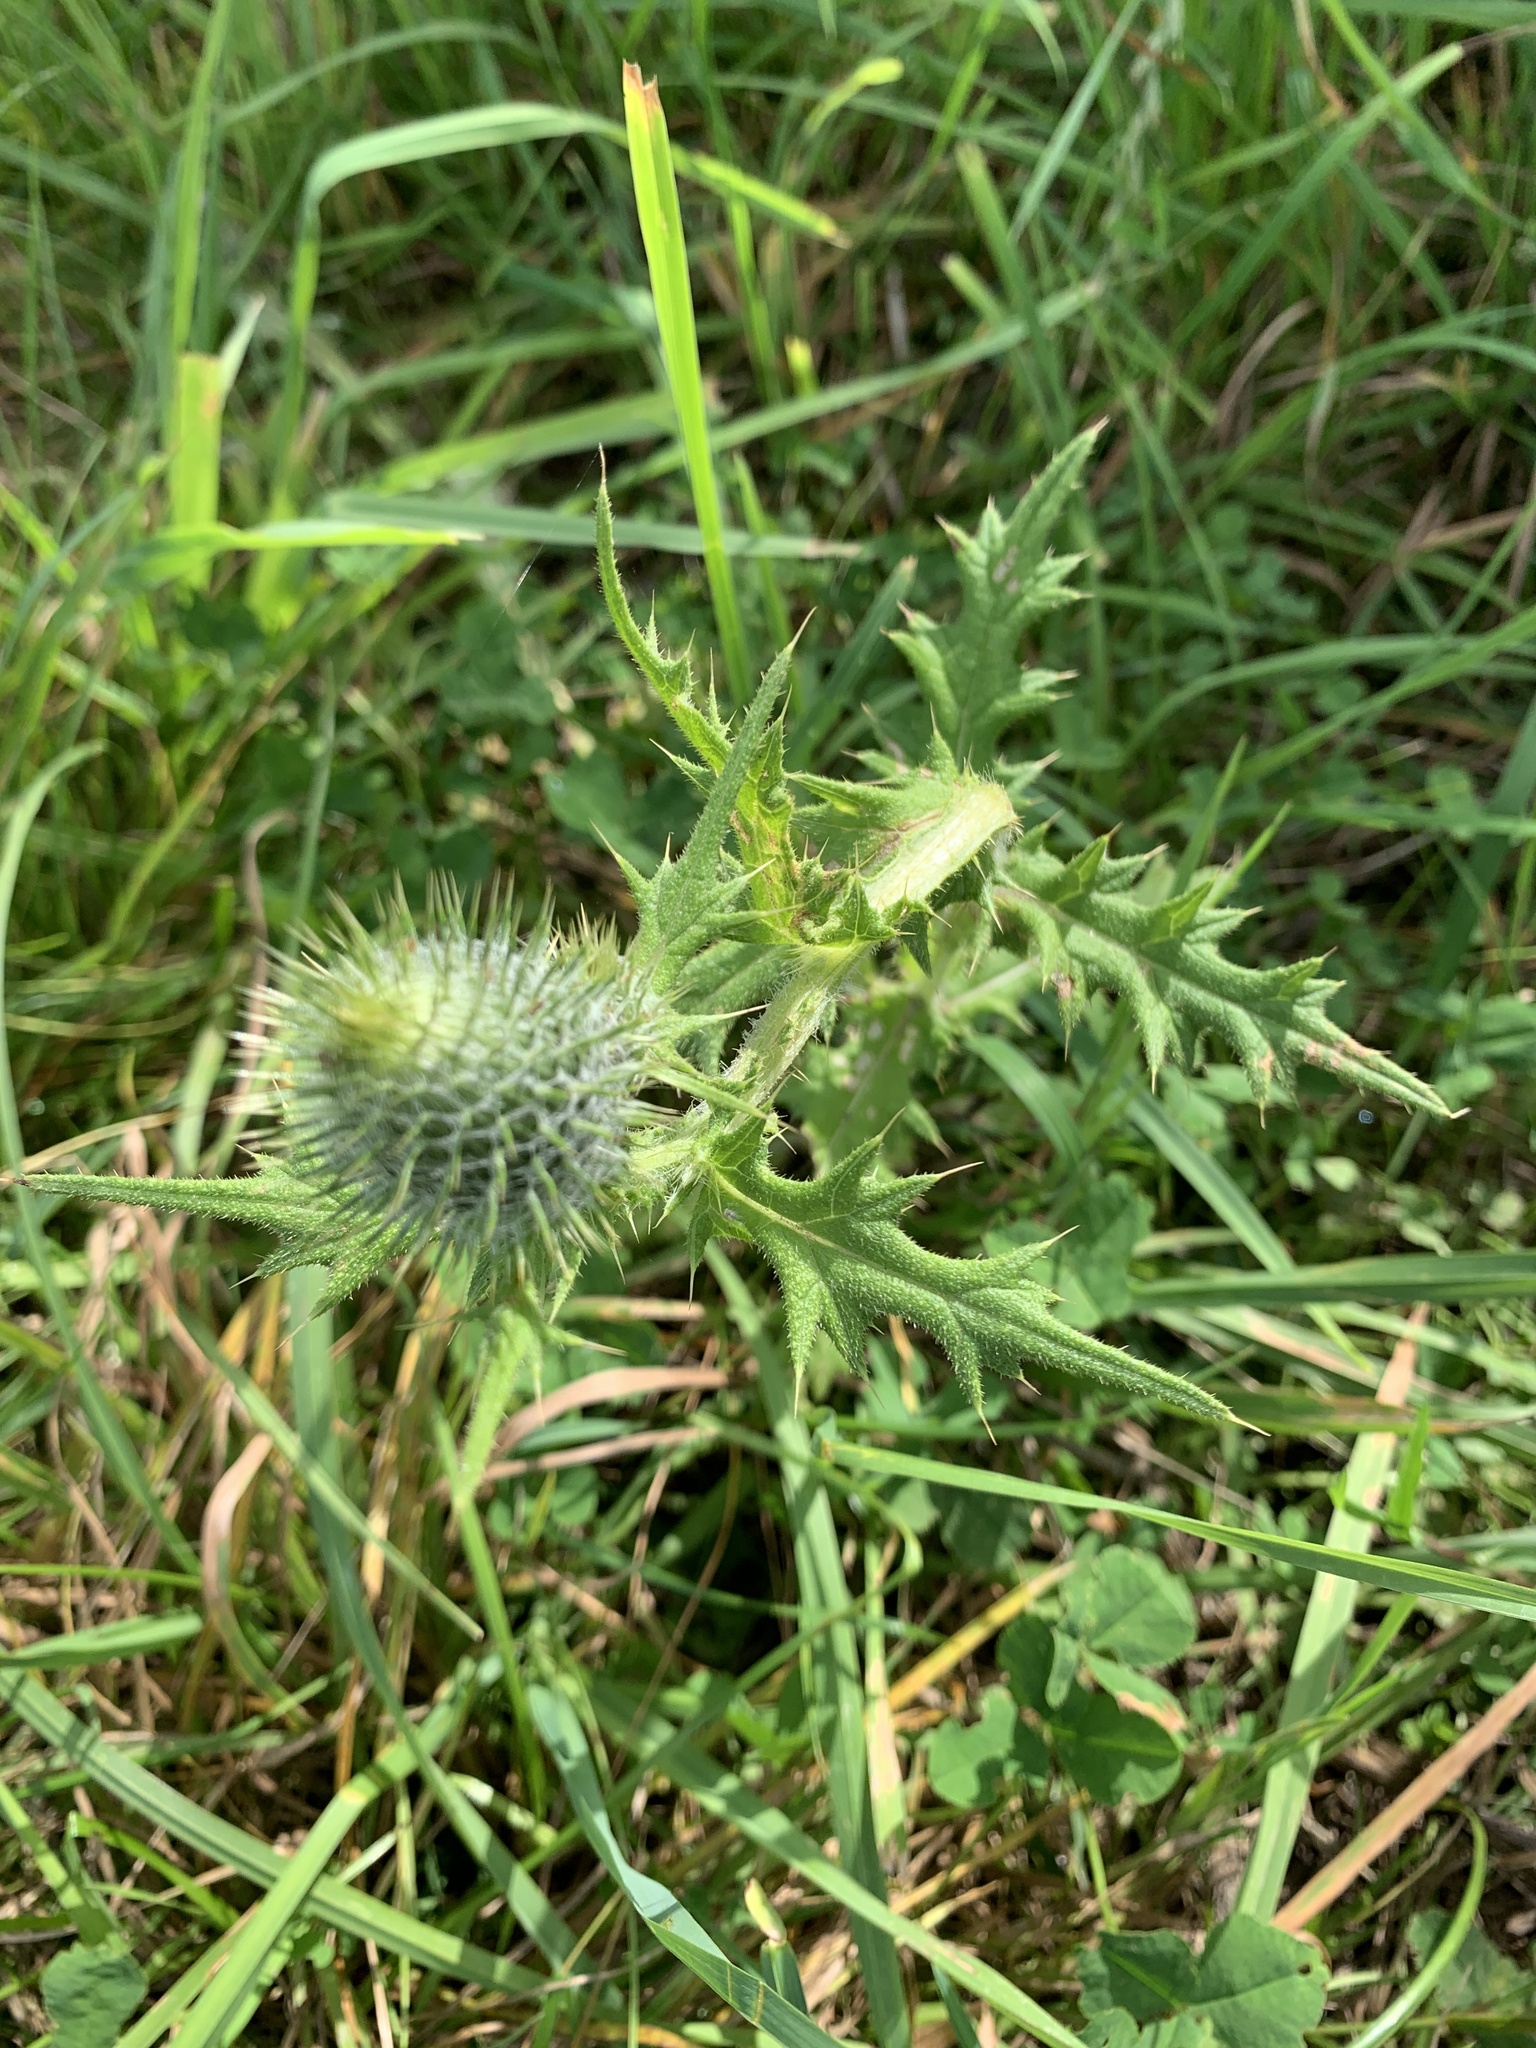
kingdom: Plantae
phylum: Tracheophyta
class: Magnoliopsida
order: Asterales
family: Asteraceae
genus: Cirsium
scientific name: Cirsium vulgare
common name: Bull thistle
